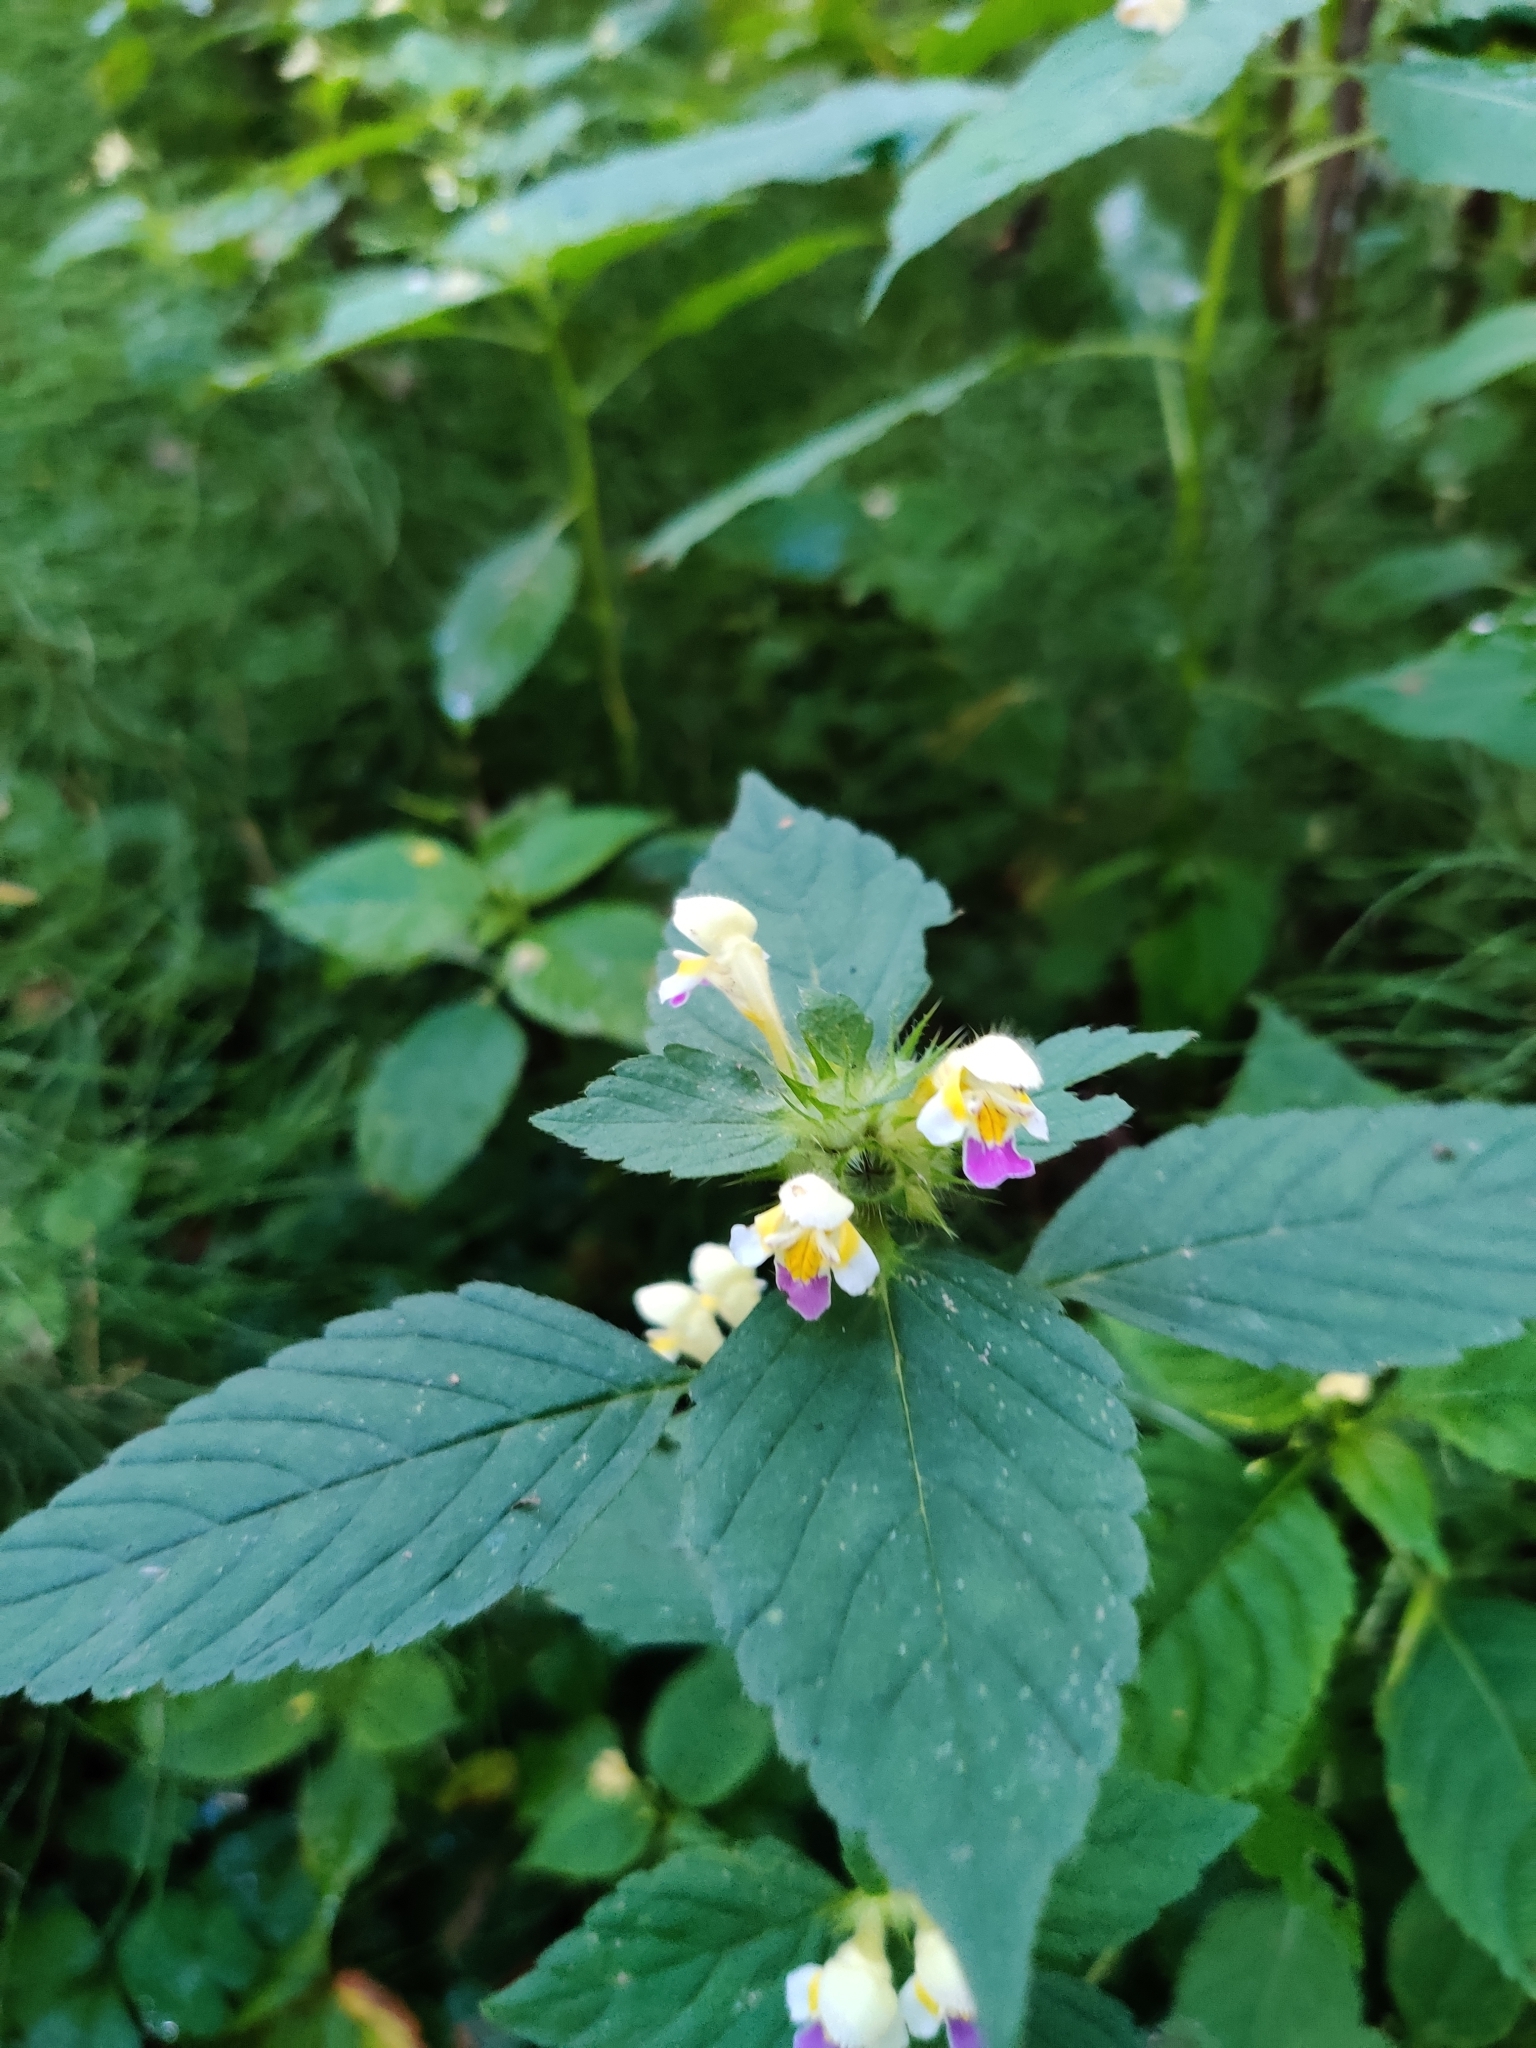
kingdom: Plantae
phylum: Tracheophyta
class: Magnoliopsida
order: Lamiales
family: Lamiaceae
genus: Galeopsis
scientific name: Galeopsis speciosa
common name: Large-flowered hemp-nettle
